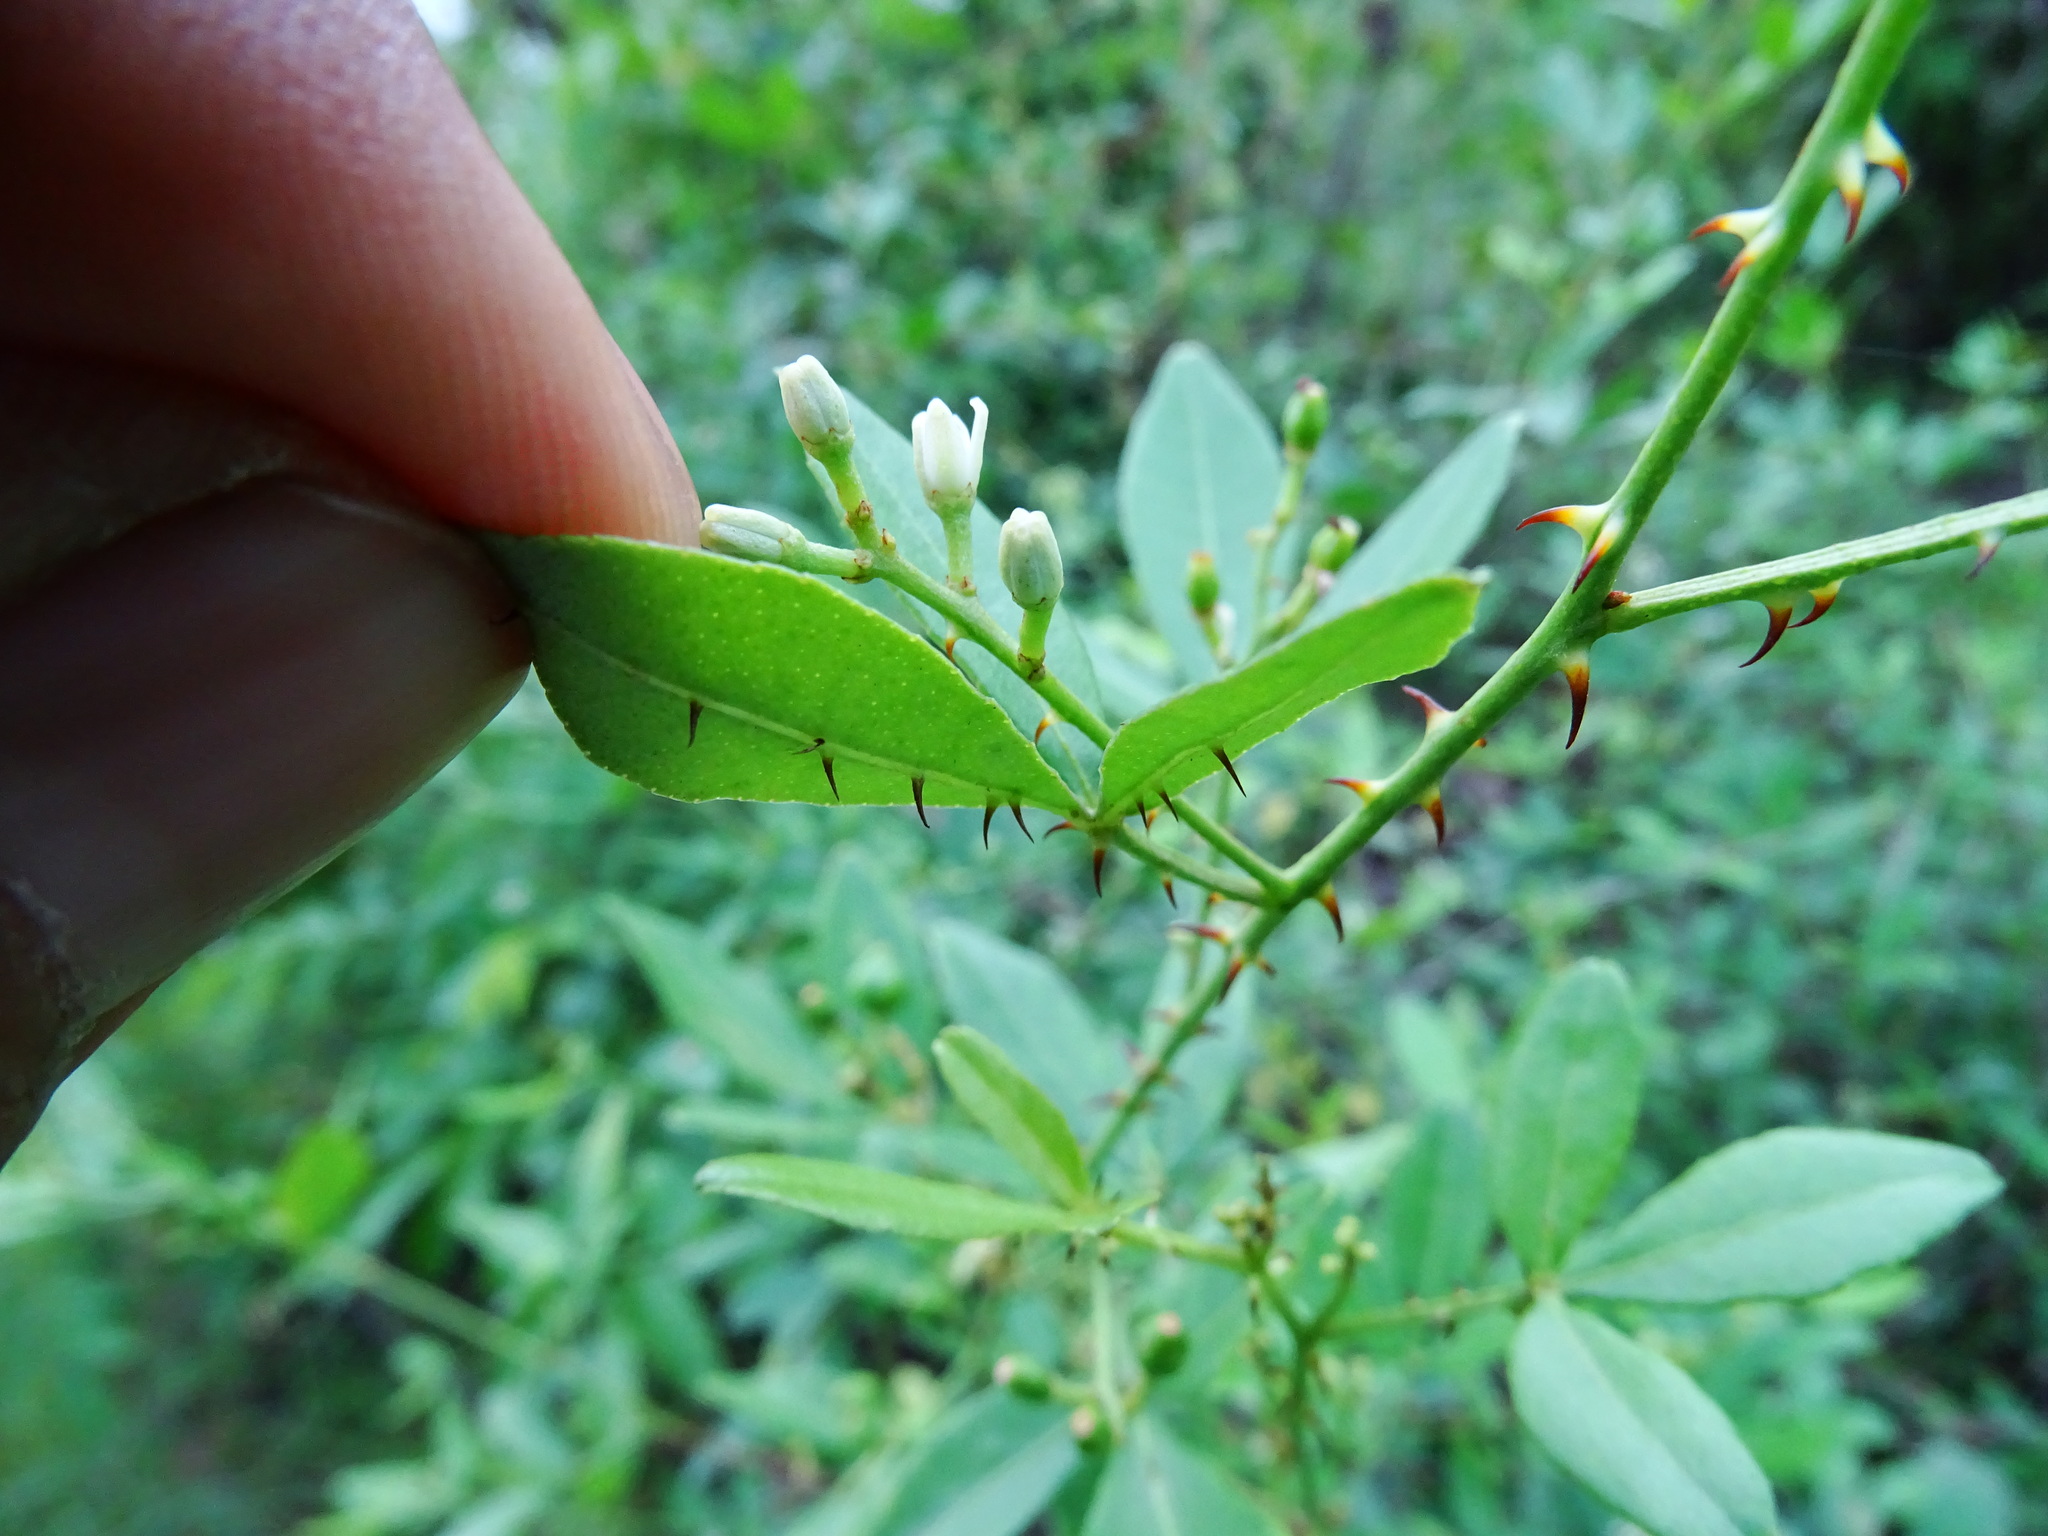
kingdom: Plantae
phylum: Tracheophyta
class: Magnoliopsida
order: Sapindales
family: Rutaceae
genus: Zanthoxylum
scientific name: Zanthoxylum asiaticum
